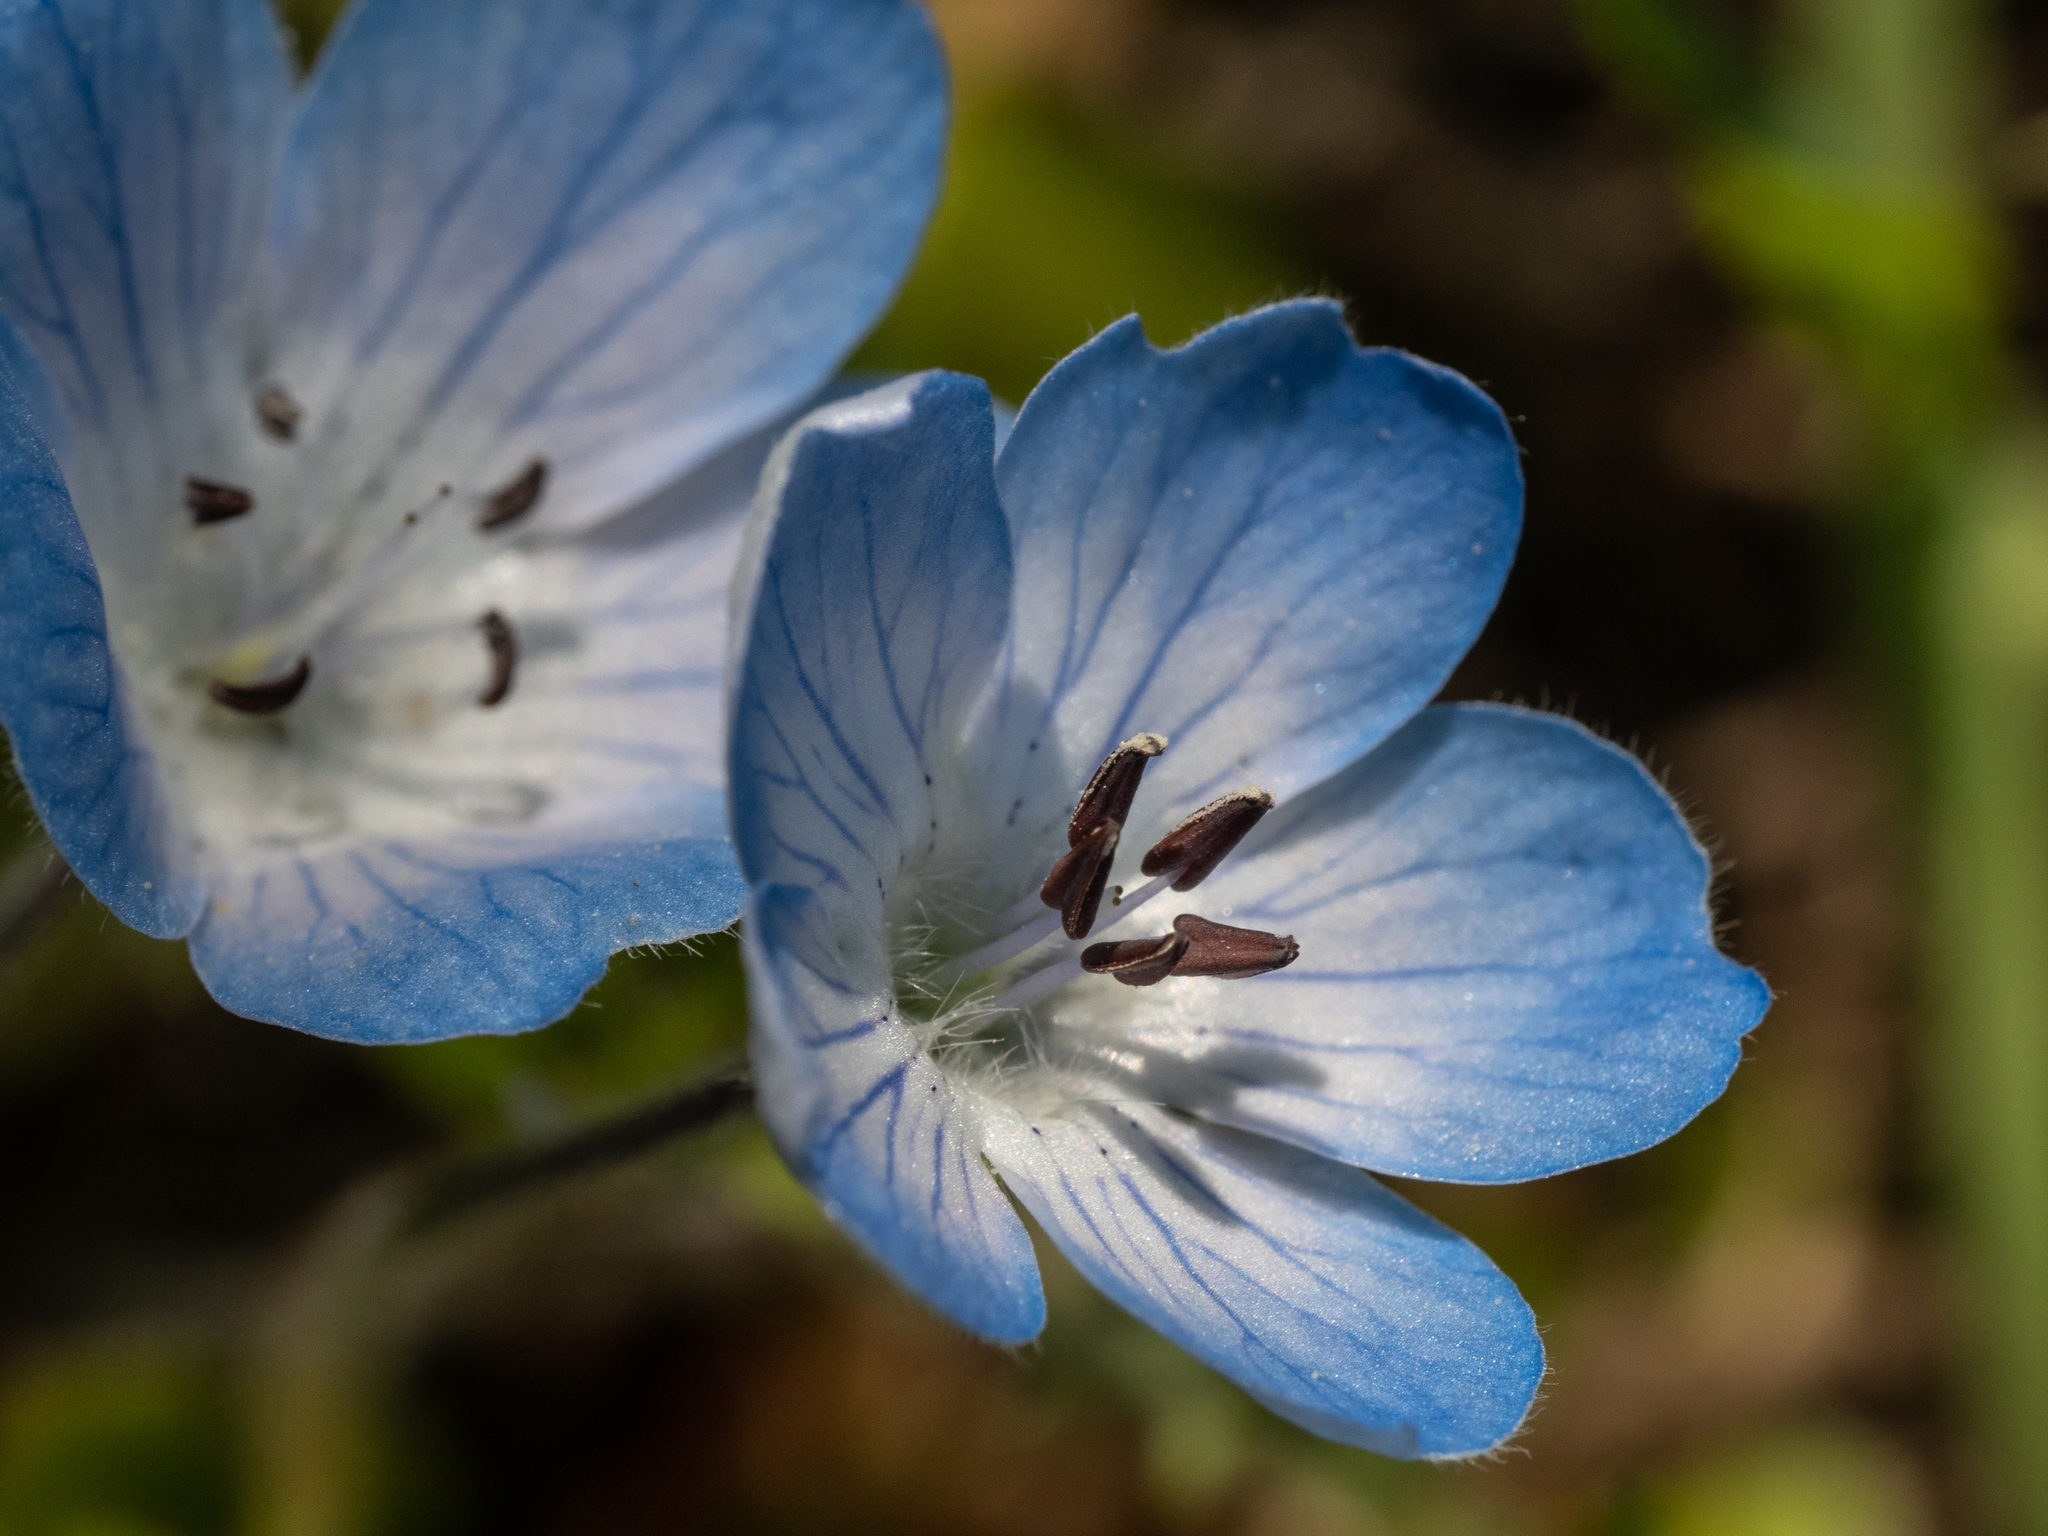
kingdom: Plantae
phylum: Tracheophyta
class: Magnoliopsida
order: Boraginales
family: Hydrophyllaceae
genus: Nemophila
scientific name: Nemophila menziesii
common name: Baby's-blue-eyes
